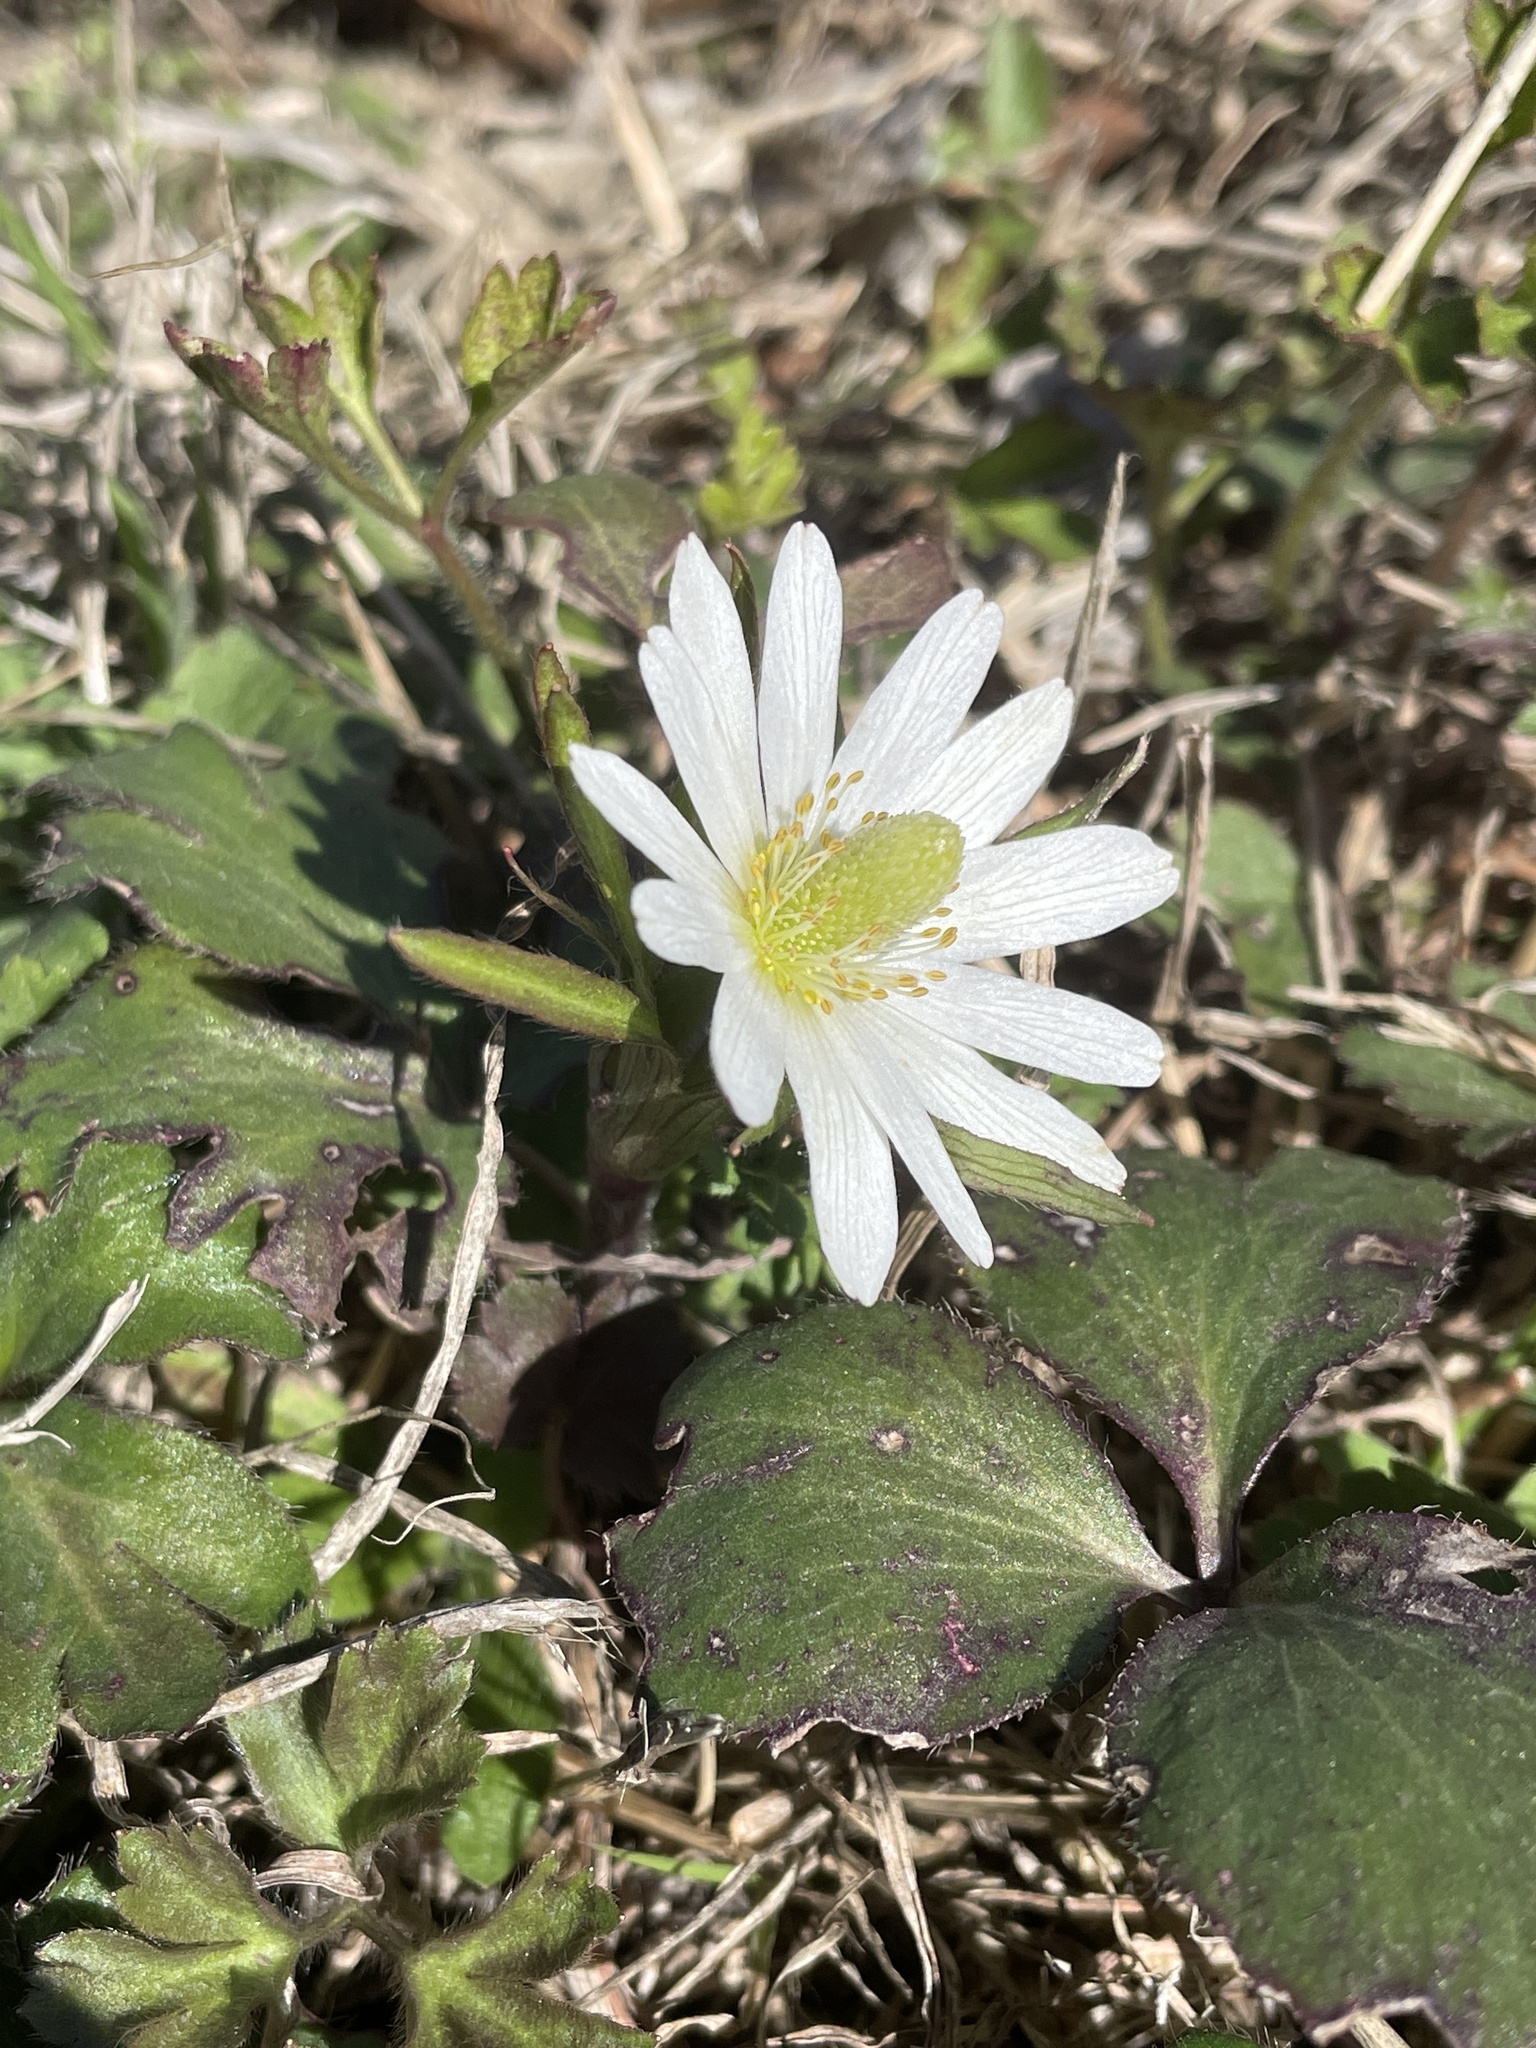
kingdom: Plantae
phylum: Tracheophyta
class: Magnoliopsida
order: Ranunculales
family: Ranunculaceae
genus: Anemone
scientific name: Anemone berlandieri
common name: Ten-petal anemone
